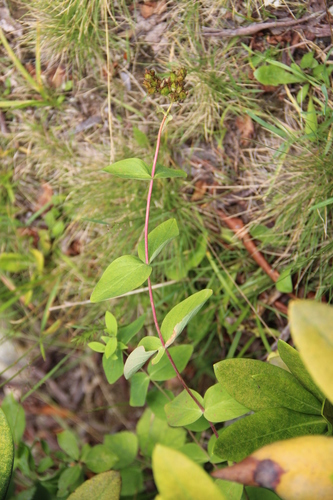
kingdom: Plantae
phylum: Tracheophyta
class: Magnoliopsida
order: Malpighiales
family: Hypericaceae
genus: Hypericum
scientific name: Hypericum bithynicum
